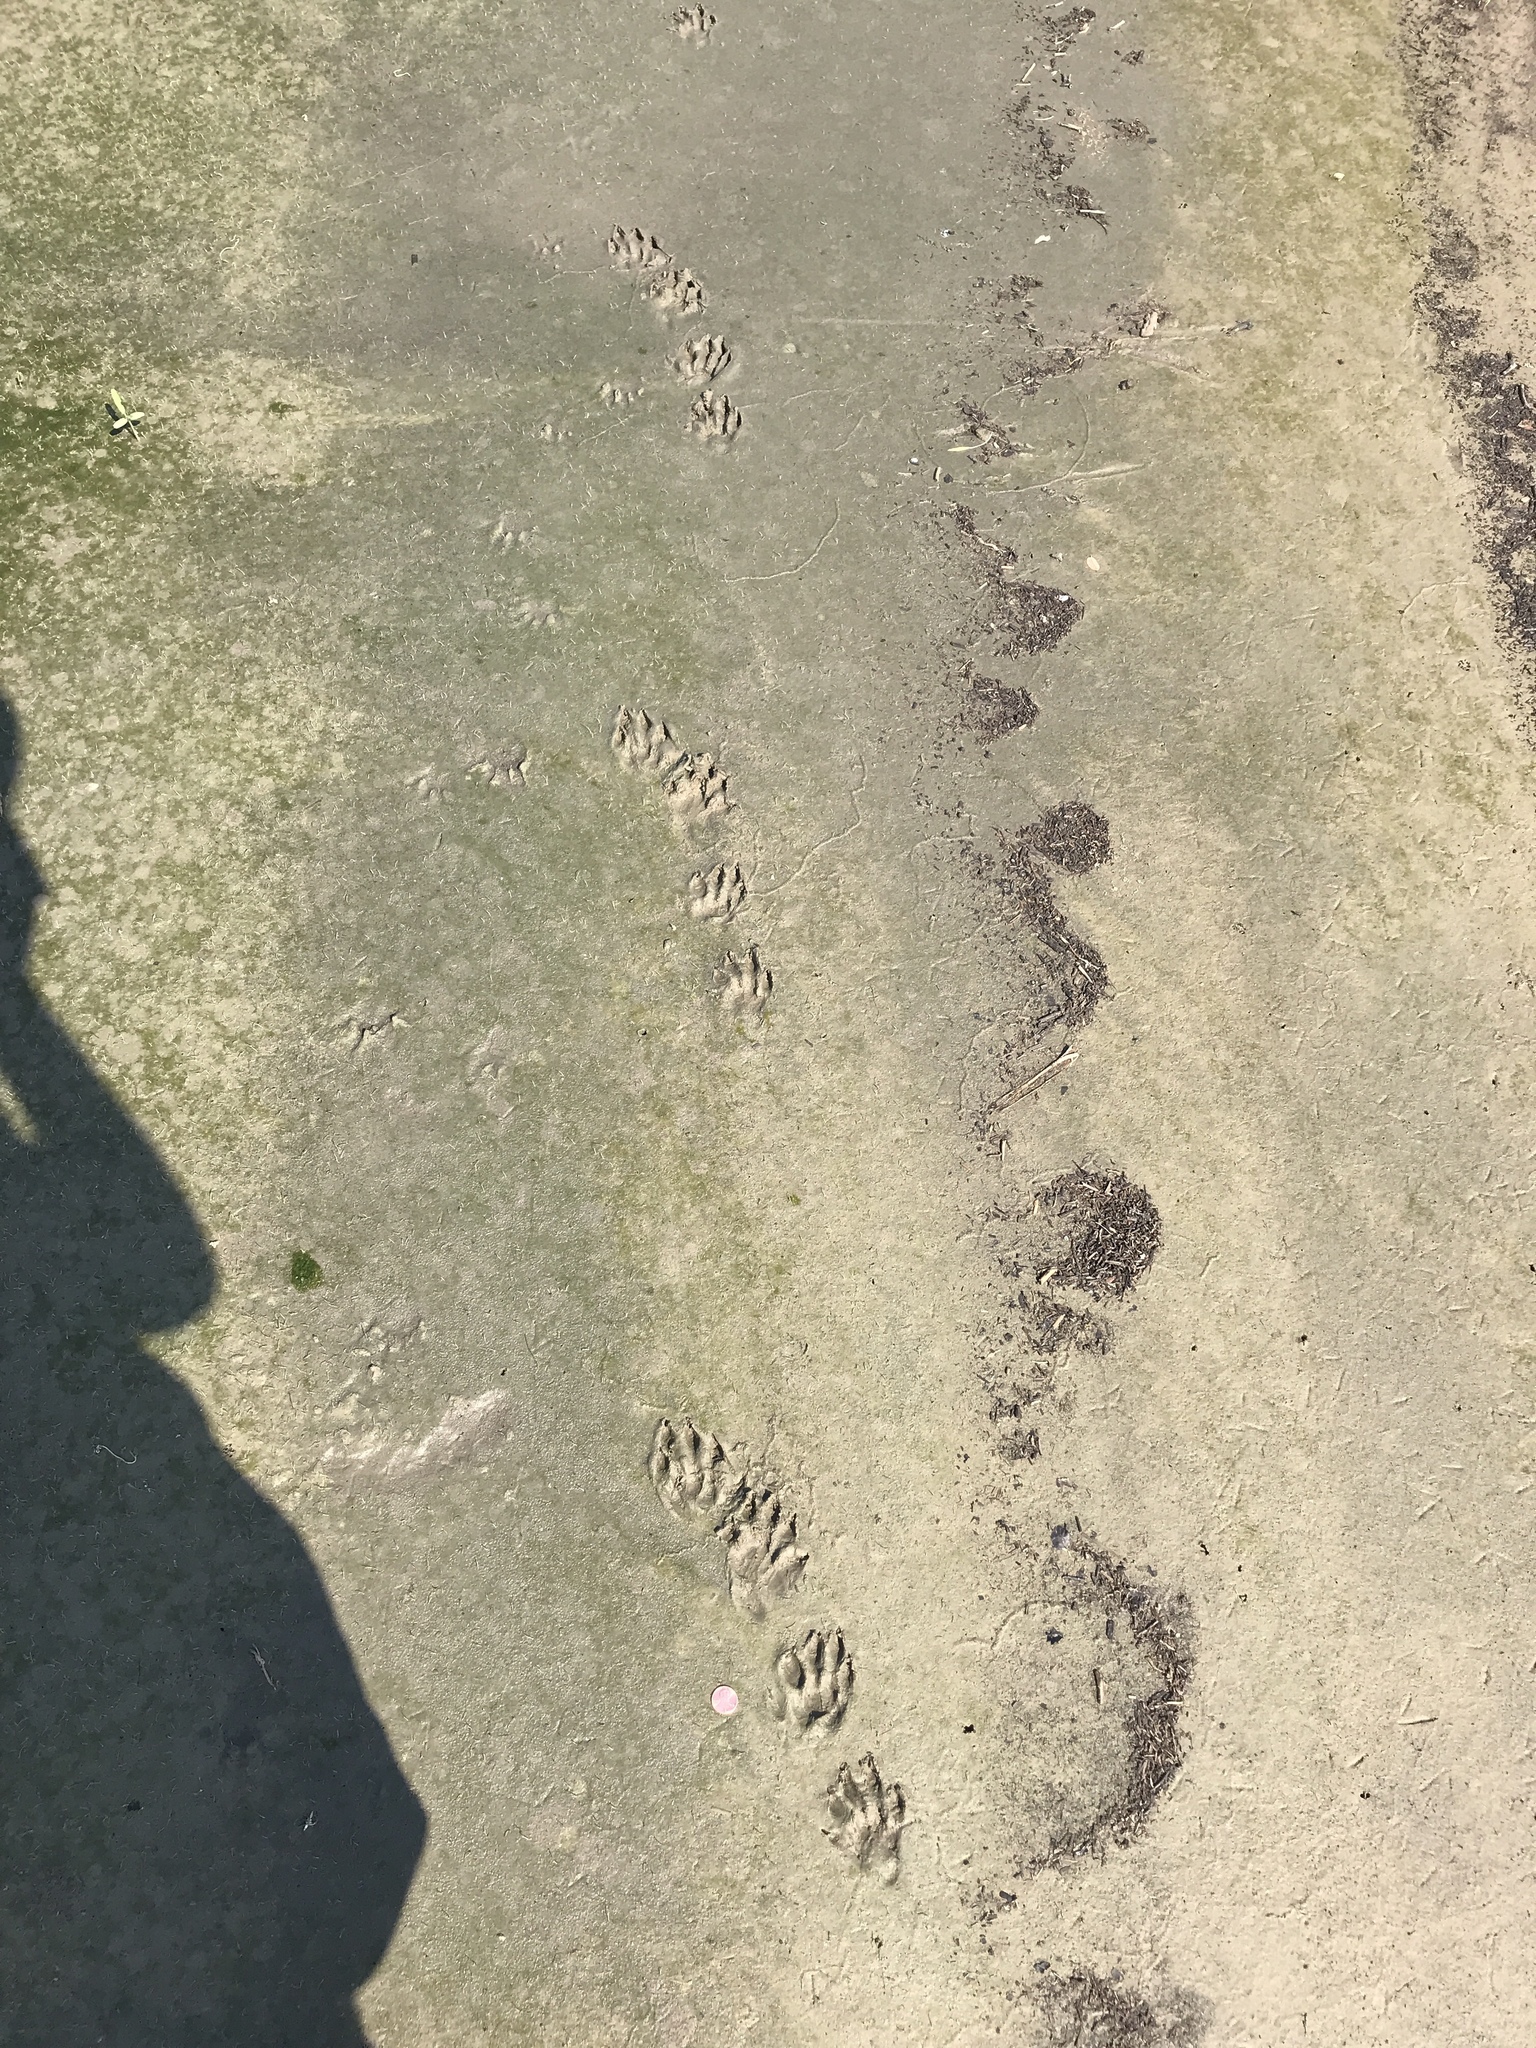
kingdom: Animalia
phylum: Chordata
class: Mammalia
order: Carnivora
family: Mustelidae
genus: Lontra
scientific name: Lontra canadensis
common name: North american river otter
